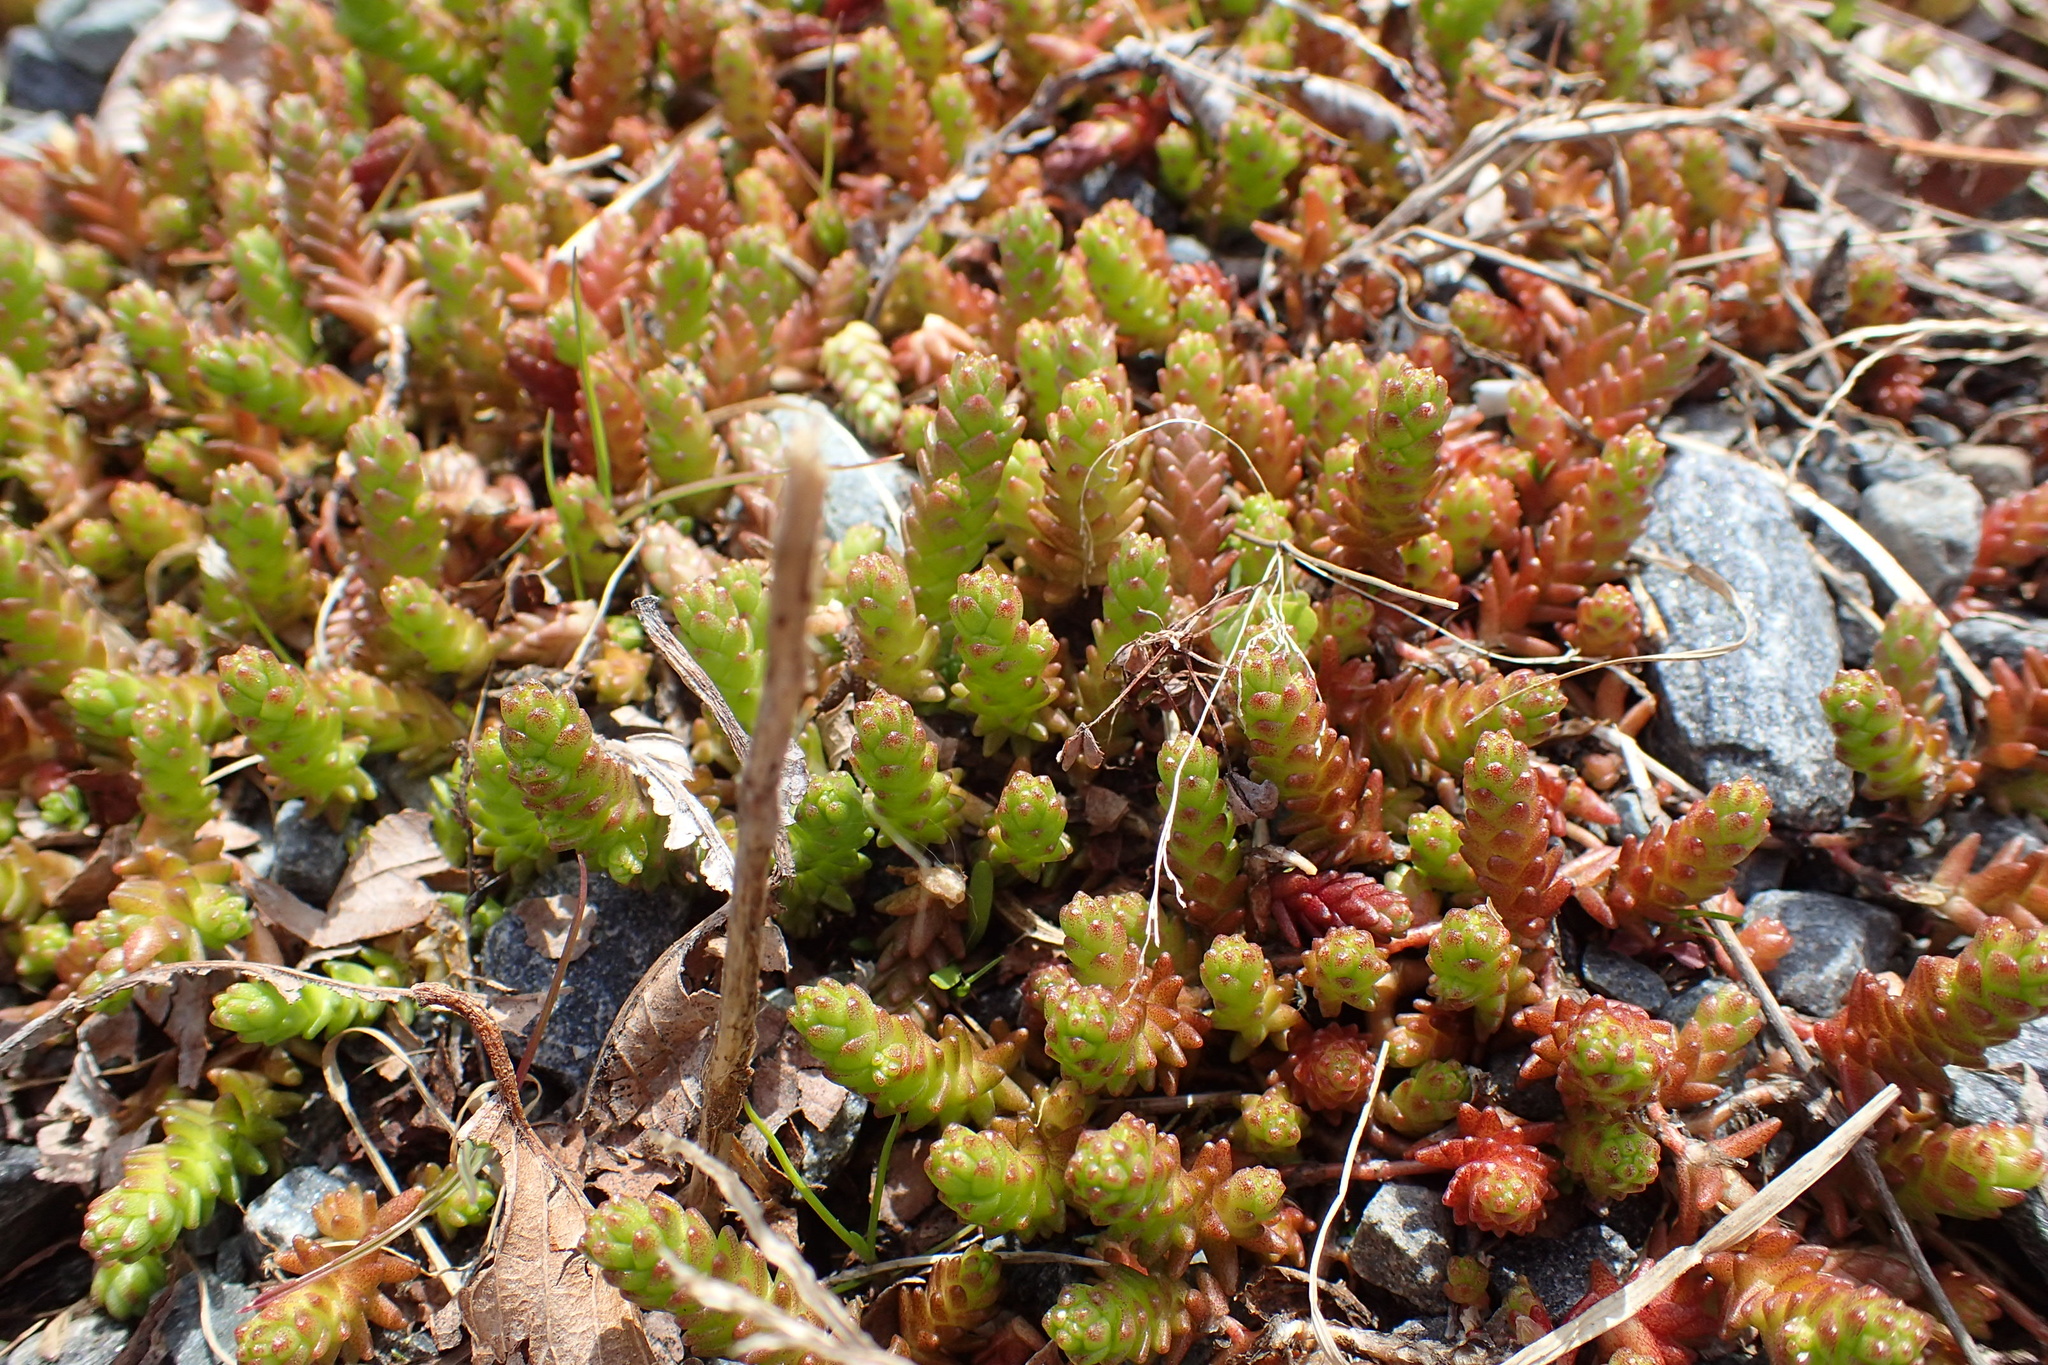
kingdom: Plantae
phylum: Tracheophyta
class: Magnoliopsida
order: Saxifragales
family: Crassulaceae
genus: Sedum
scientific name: Sedum acre
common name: Biting stonecrop
